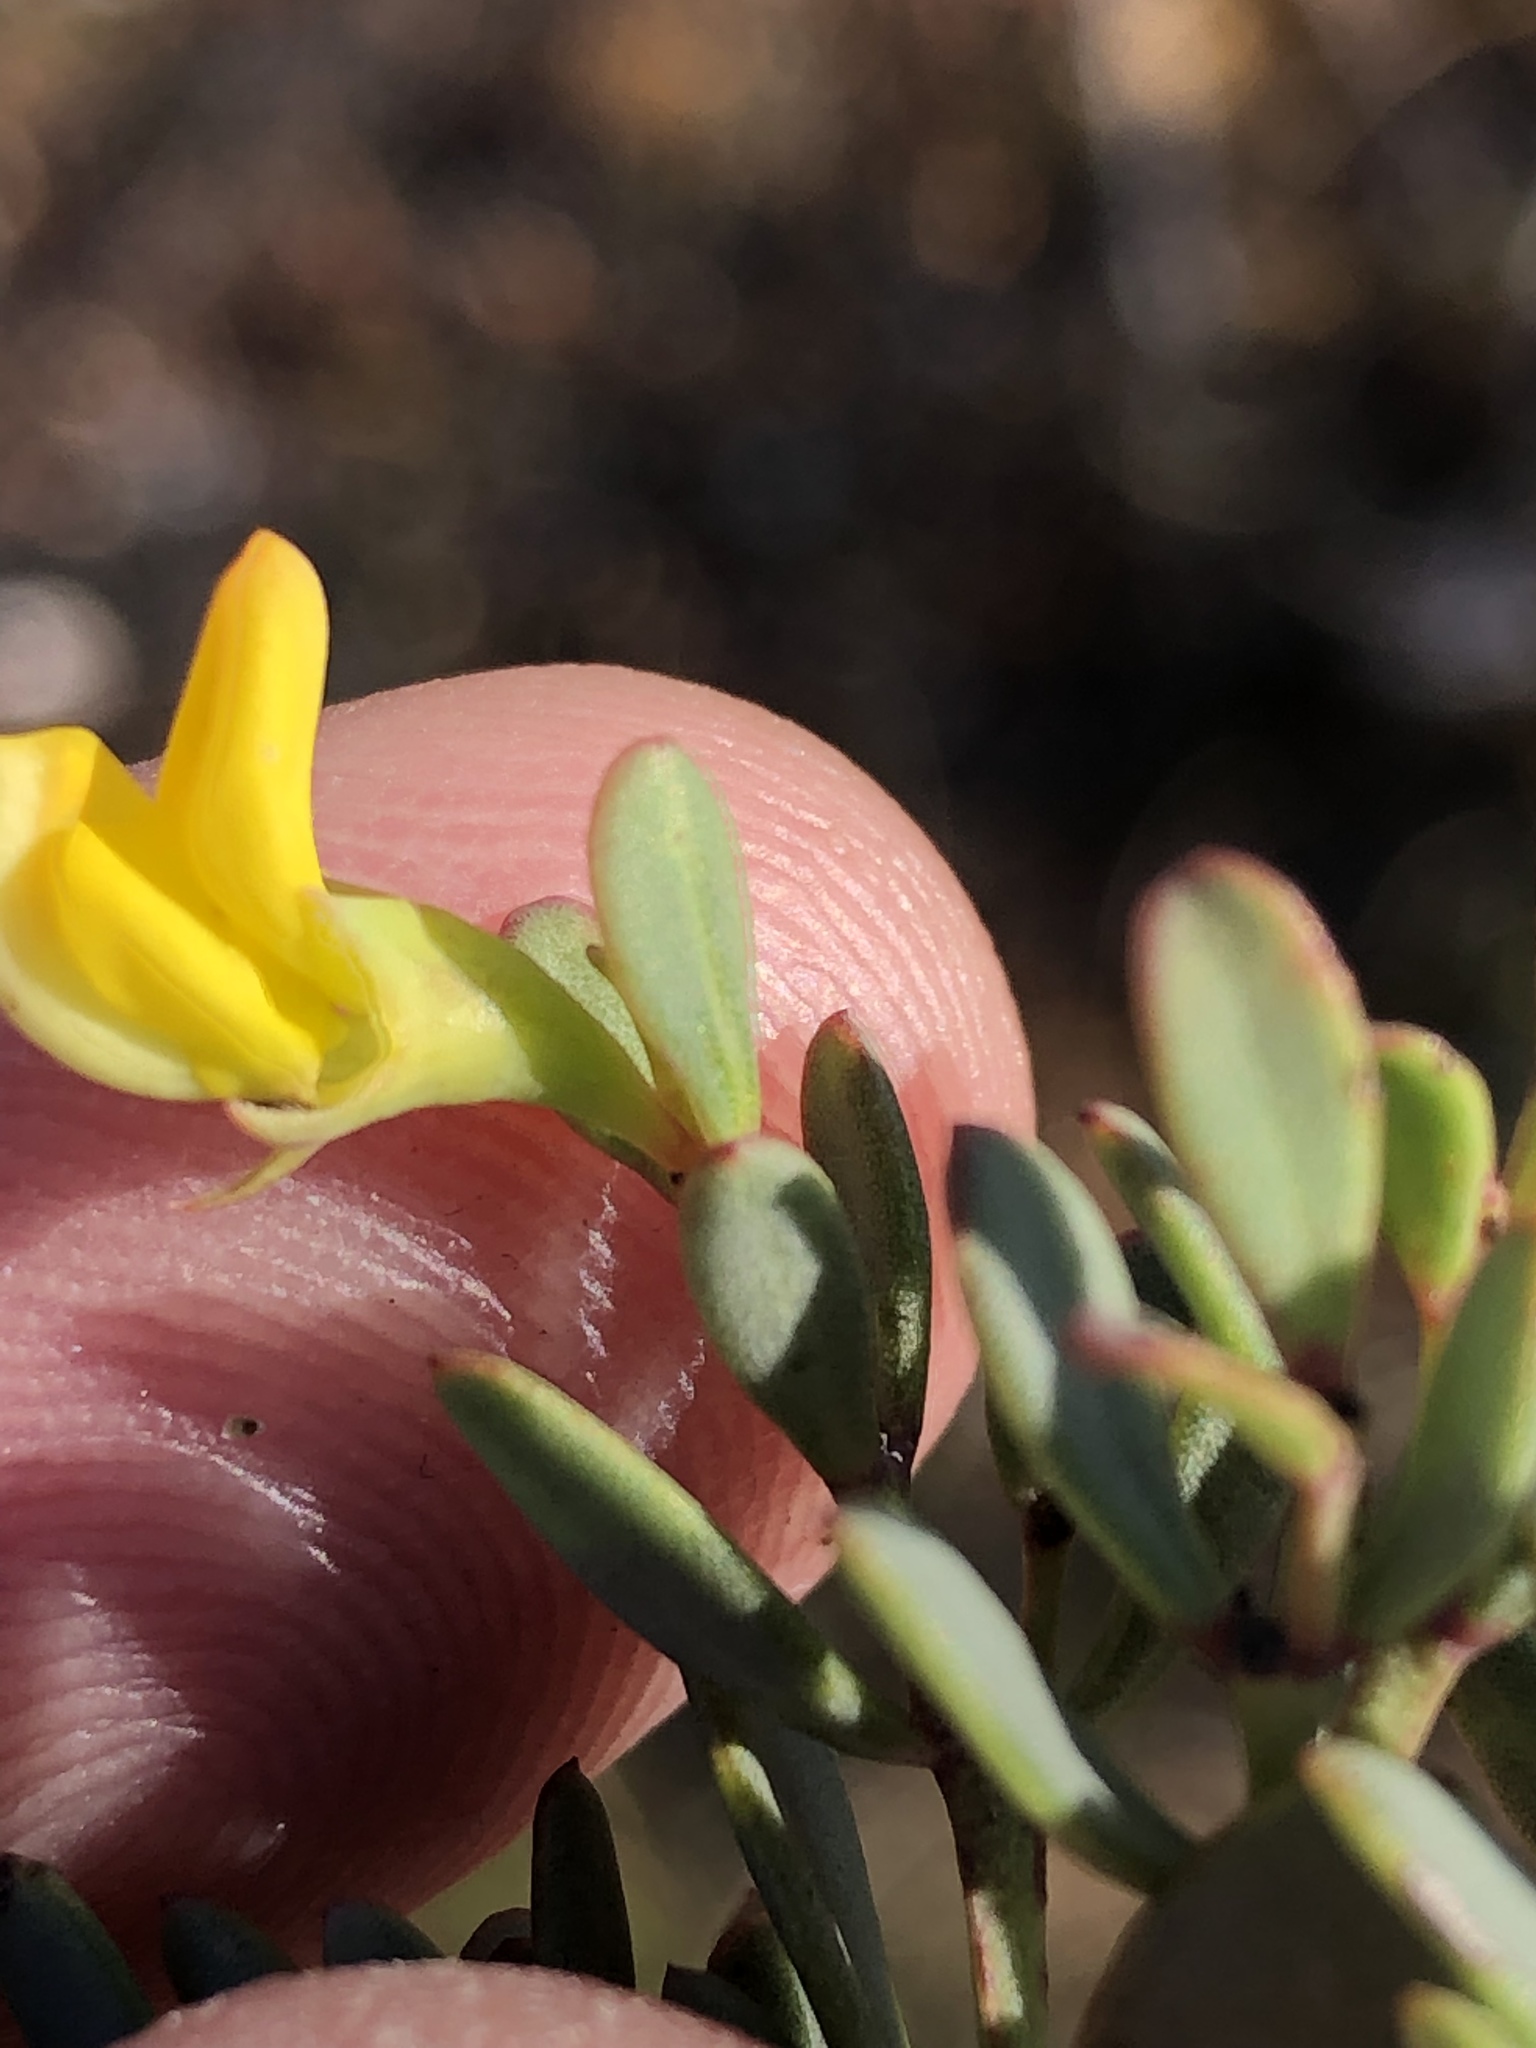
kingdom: Plantae
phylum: Tracheophyta
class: Magnoliopsida
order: Fabales
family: Fabaceae
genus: Rafnia
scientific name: Rafnia capensis
